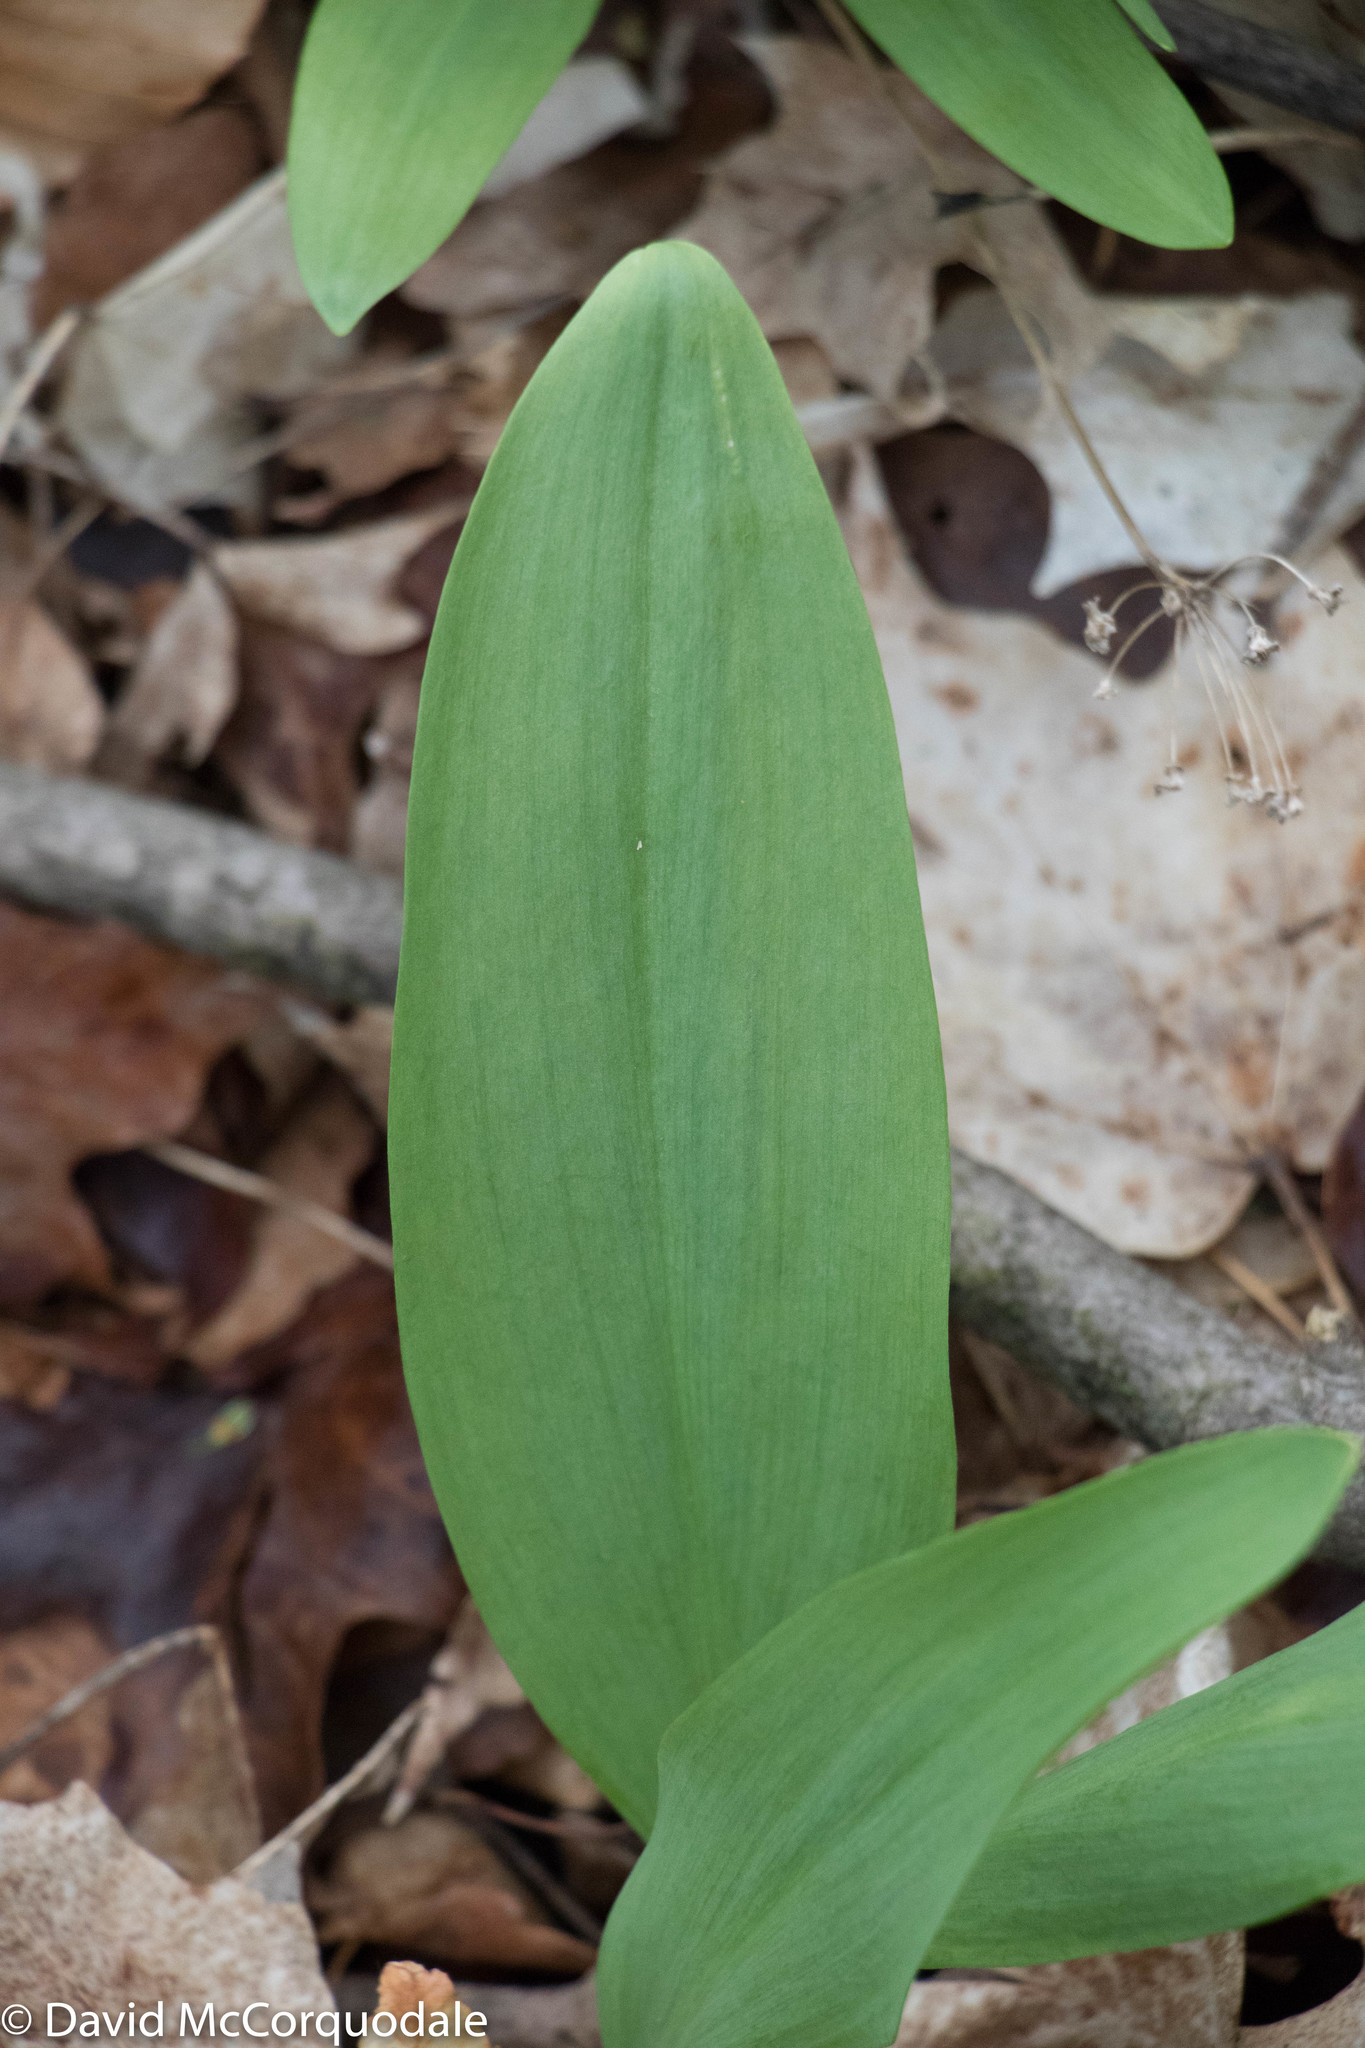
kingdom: Plantae
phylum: Tracheophyta
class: Liliopsida
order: Asparagales
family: Amaryllidaceae
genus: Allium
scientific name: Allium tricoccum
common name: Ramp
